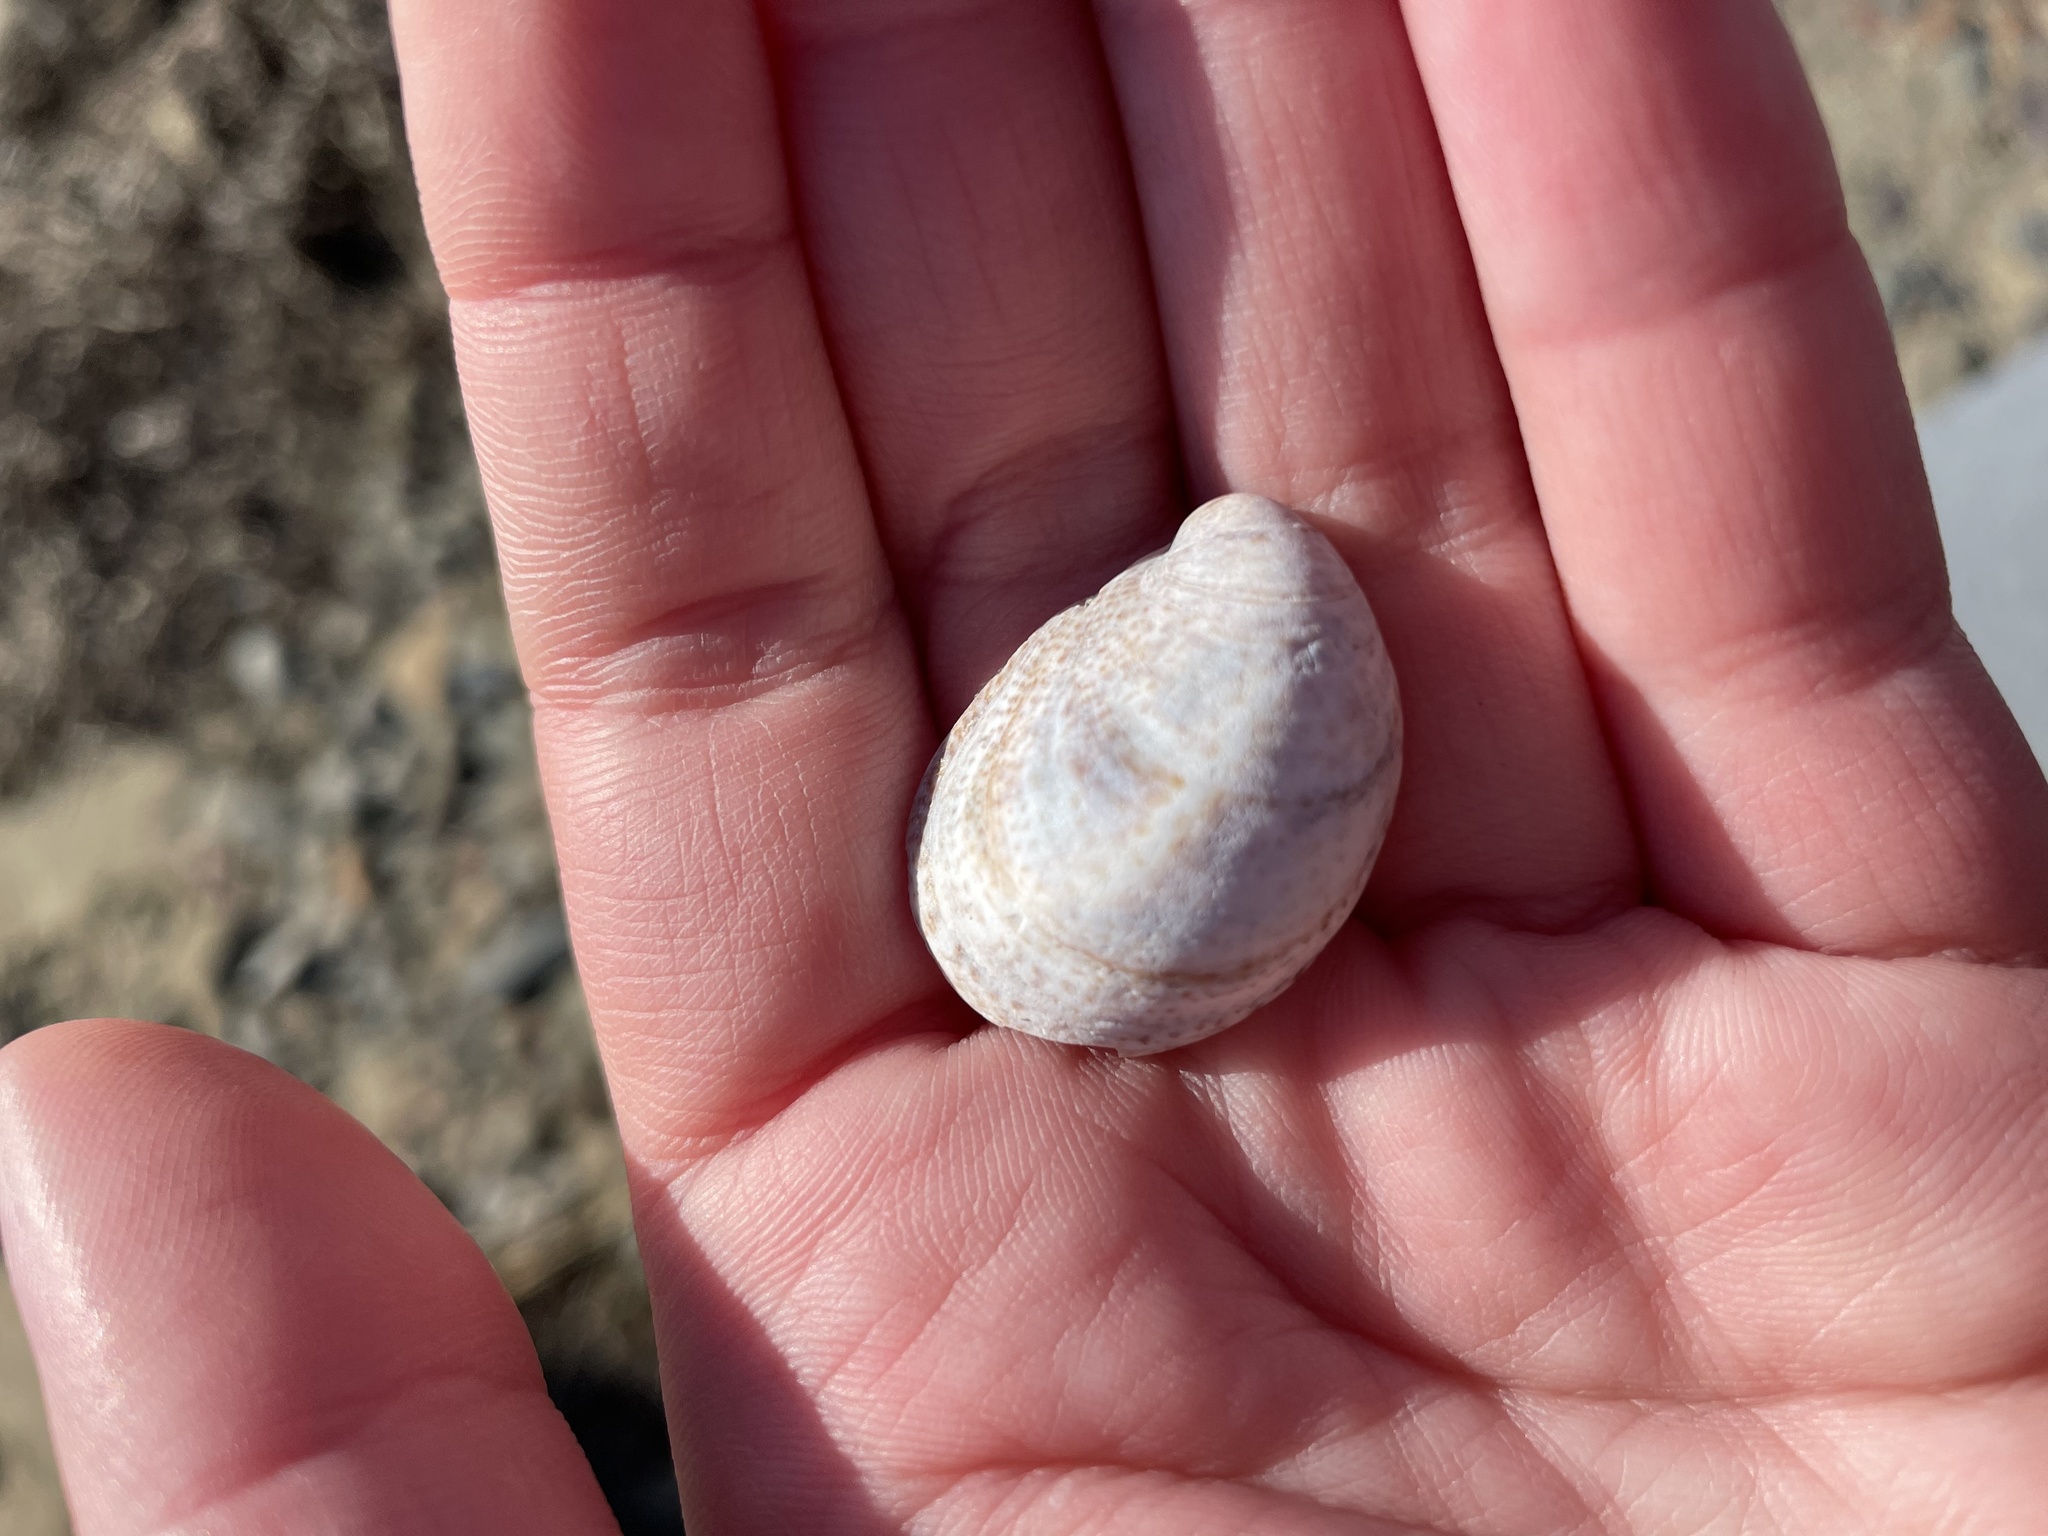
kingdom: Animalia
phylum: Mollusca
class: Gastropoda
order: Littorinimorpha
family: Calyptraeidae
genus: Crepidula
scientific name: Crepidula fornicata
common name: Slipper limpet
